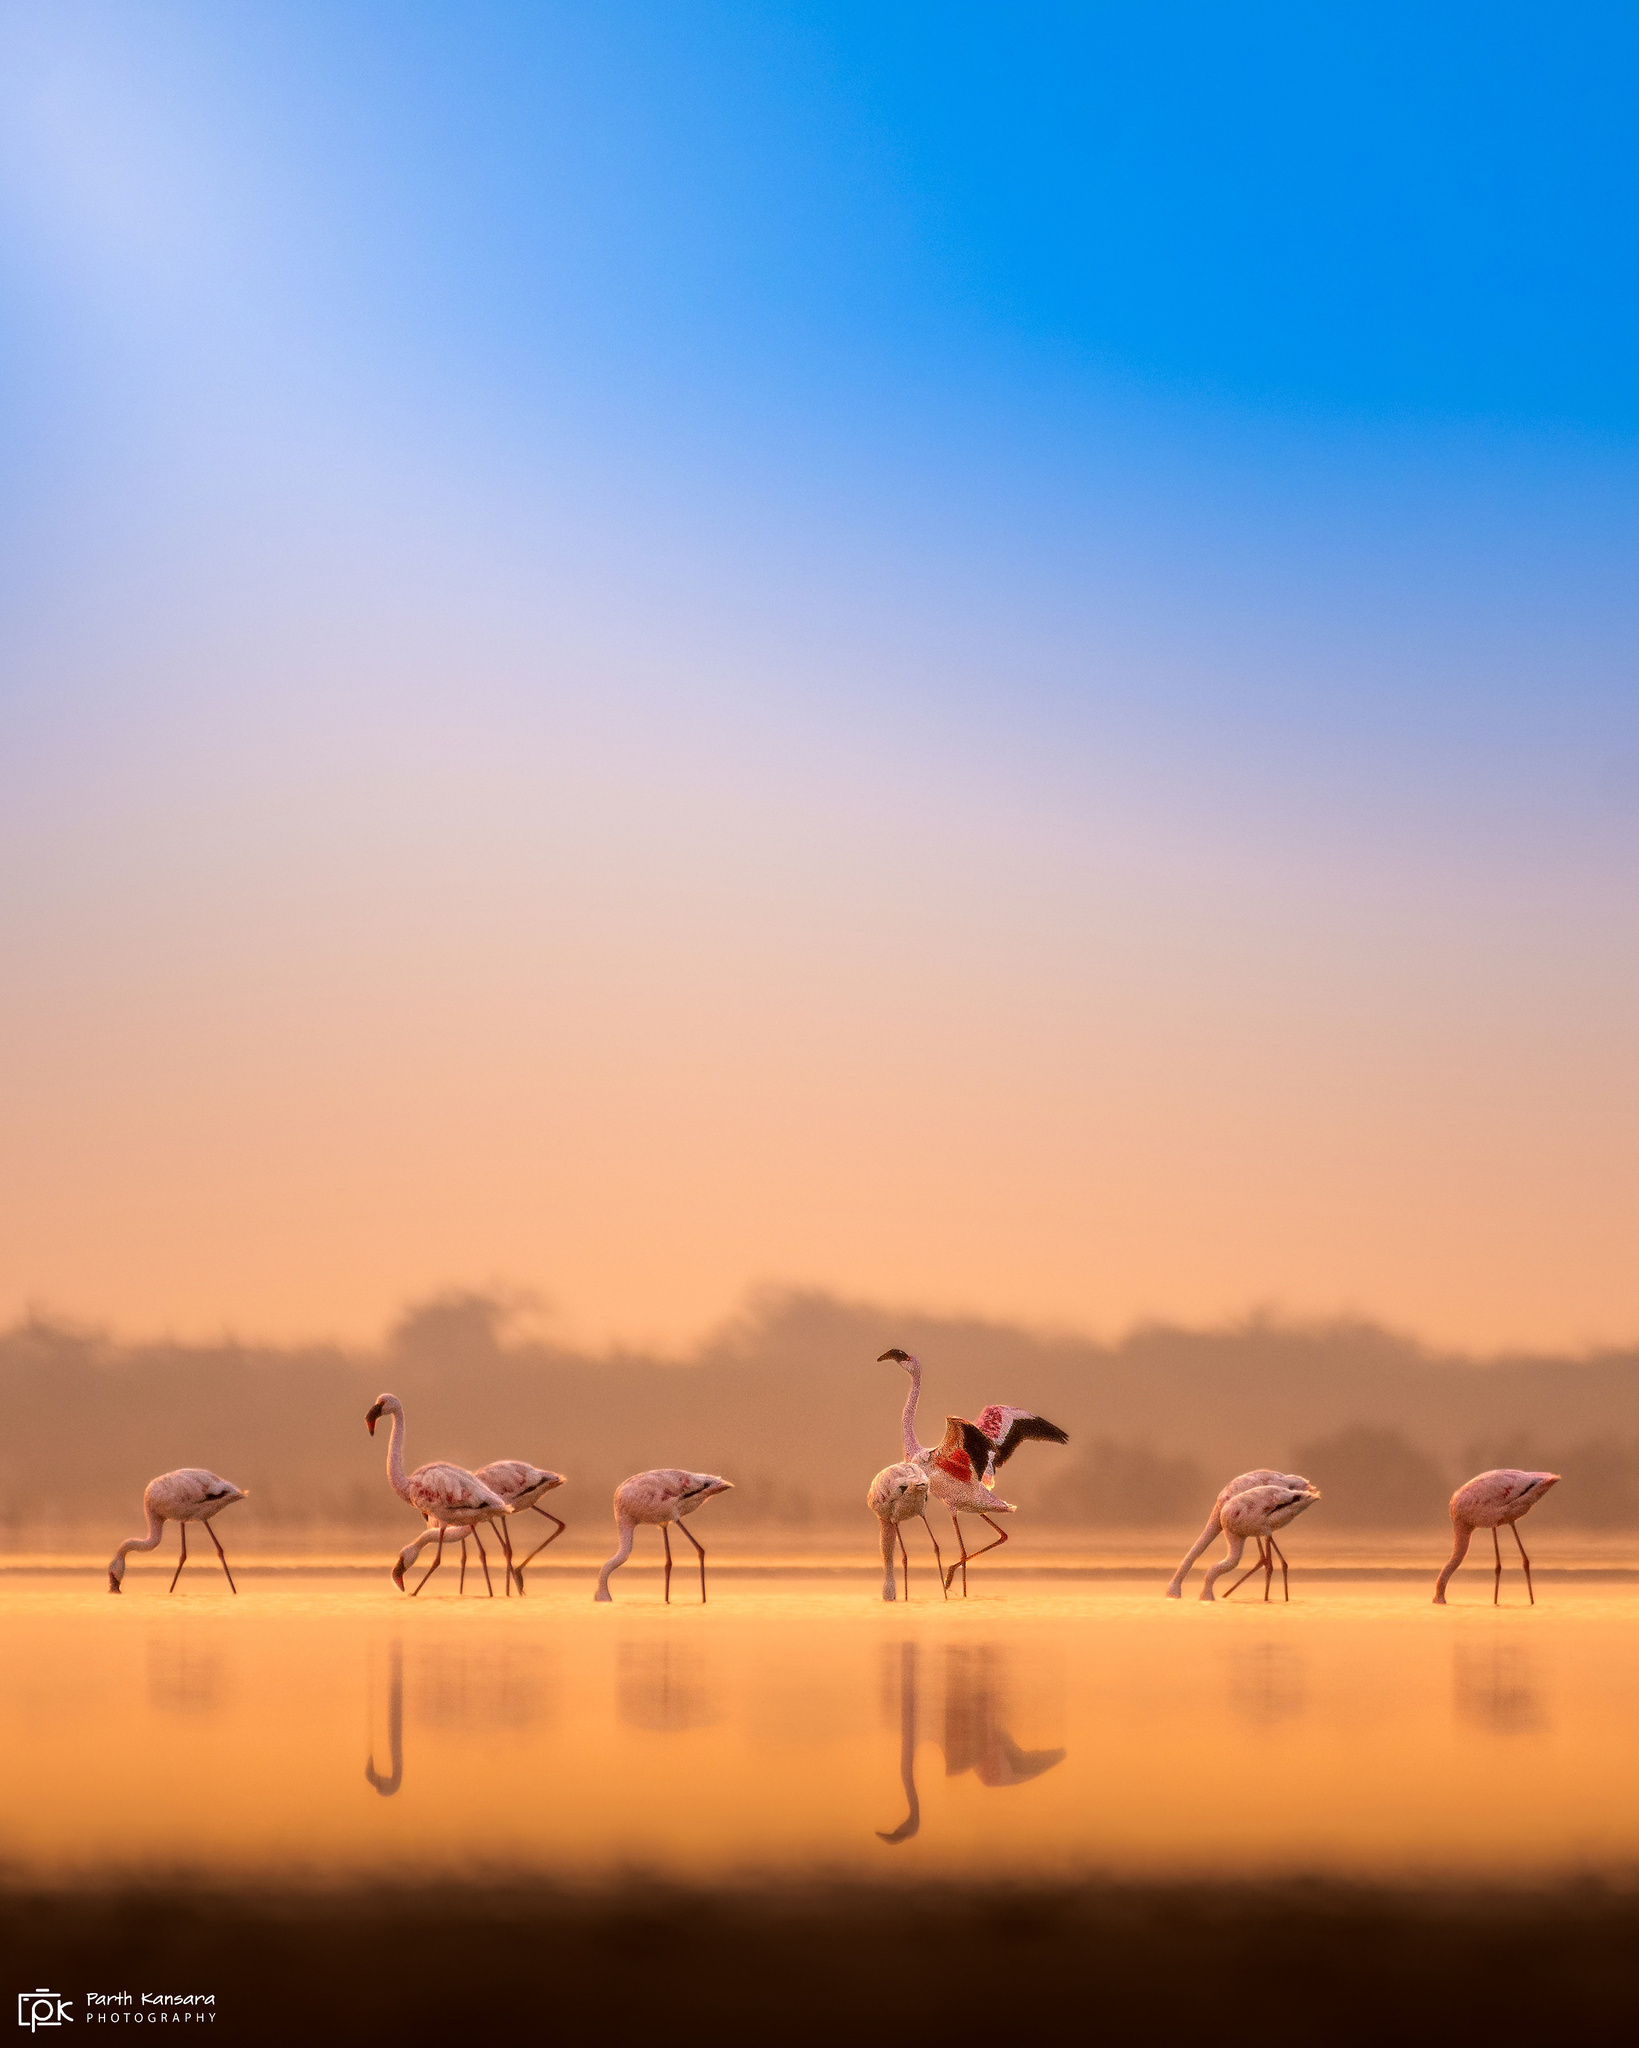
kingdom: Animalia
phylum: Chordata
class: Aves
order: Phoenicopteriformes
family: Phoenicopteridae
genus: Phoeniconaias
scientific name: Phoeniconaias minor
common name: Lesser flamingo
